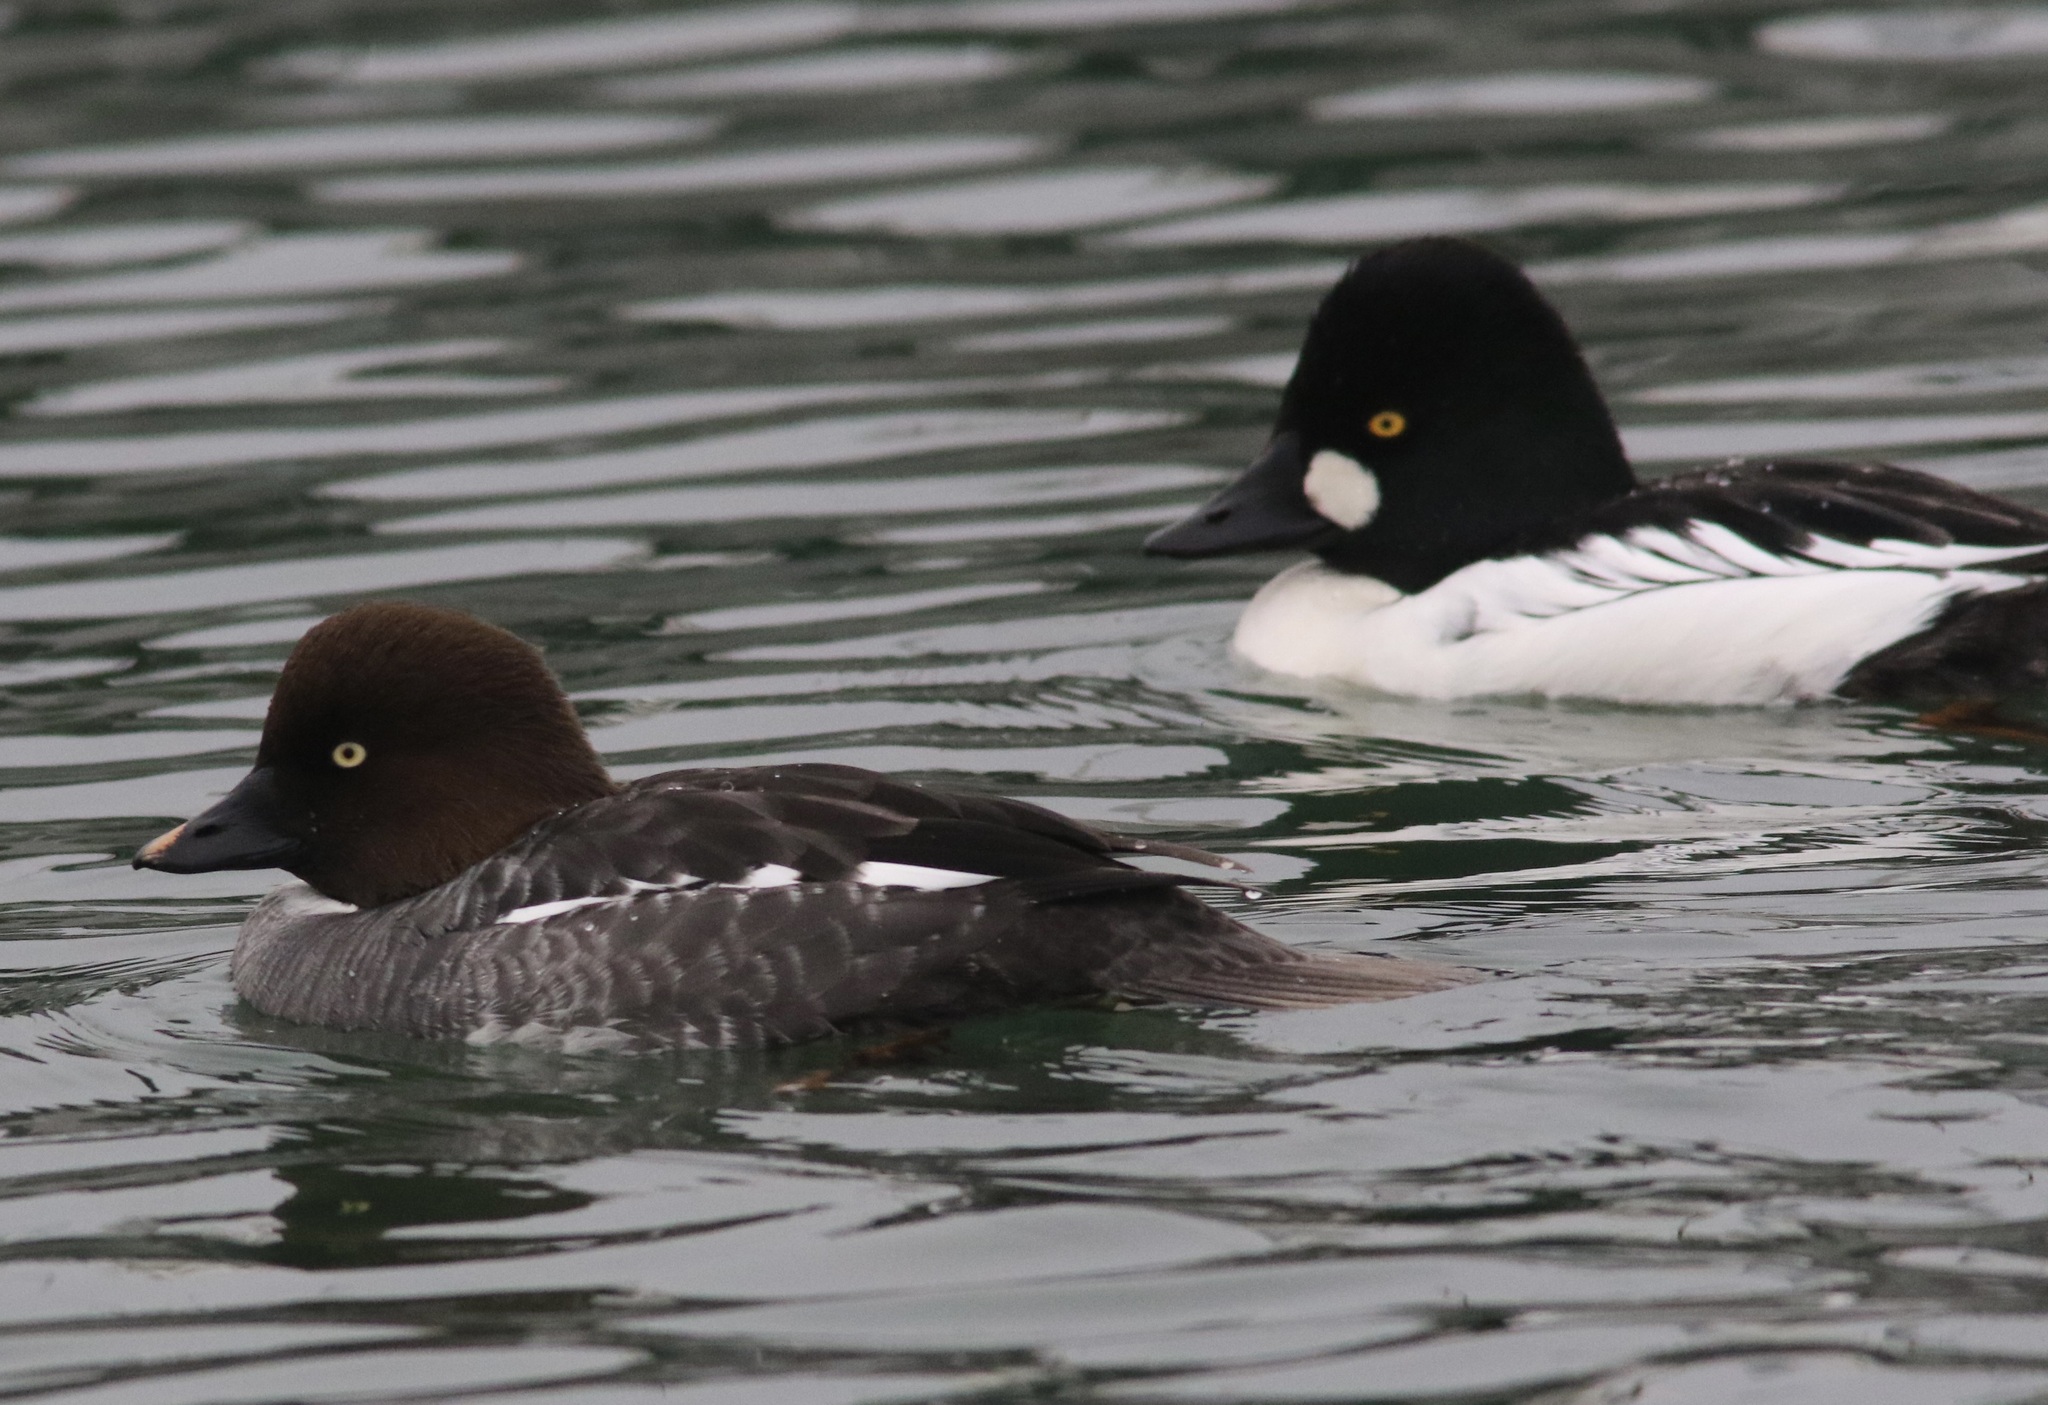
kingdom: Animalia
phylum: Chordata
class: Aves
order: Anseriformes
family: Anatidae
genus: Bucephala
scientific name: Bucephala clangula
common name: Common goldeneye
